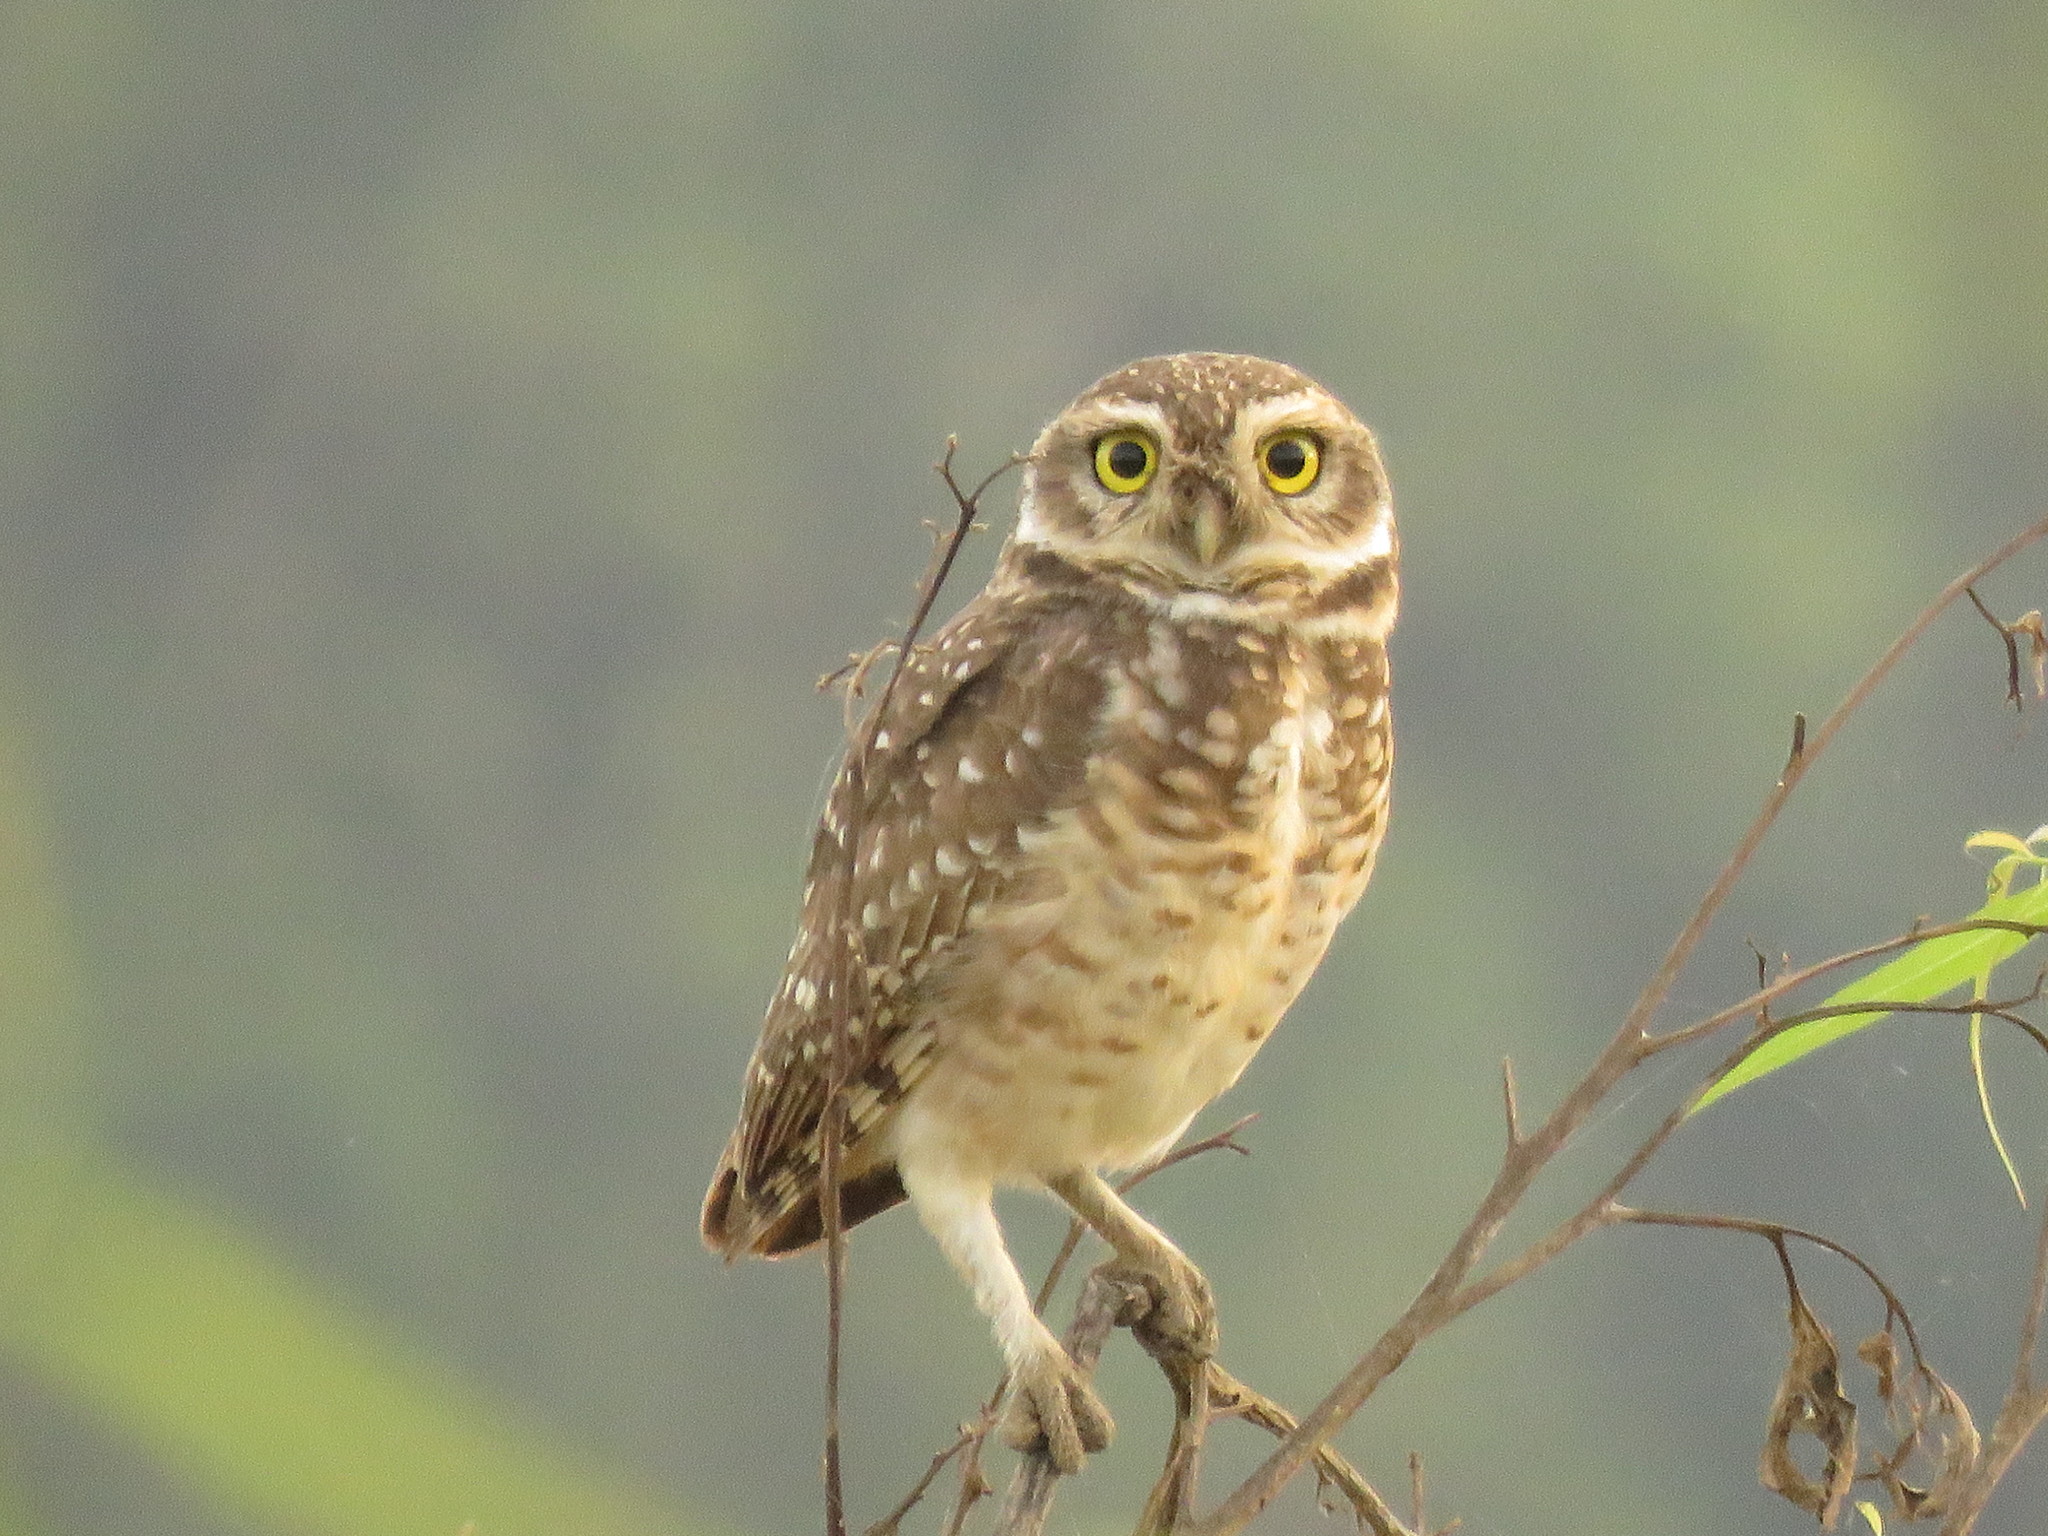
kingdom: Animalia
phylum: Chordata
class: Aves
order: Strigiformes
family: Strigidae
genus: Athene
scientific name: Athene cunicularia
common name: Burrowing owl
